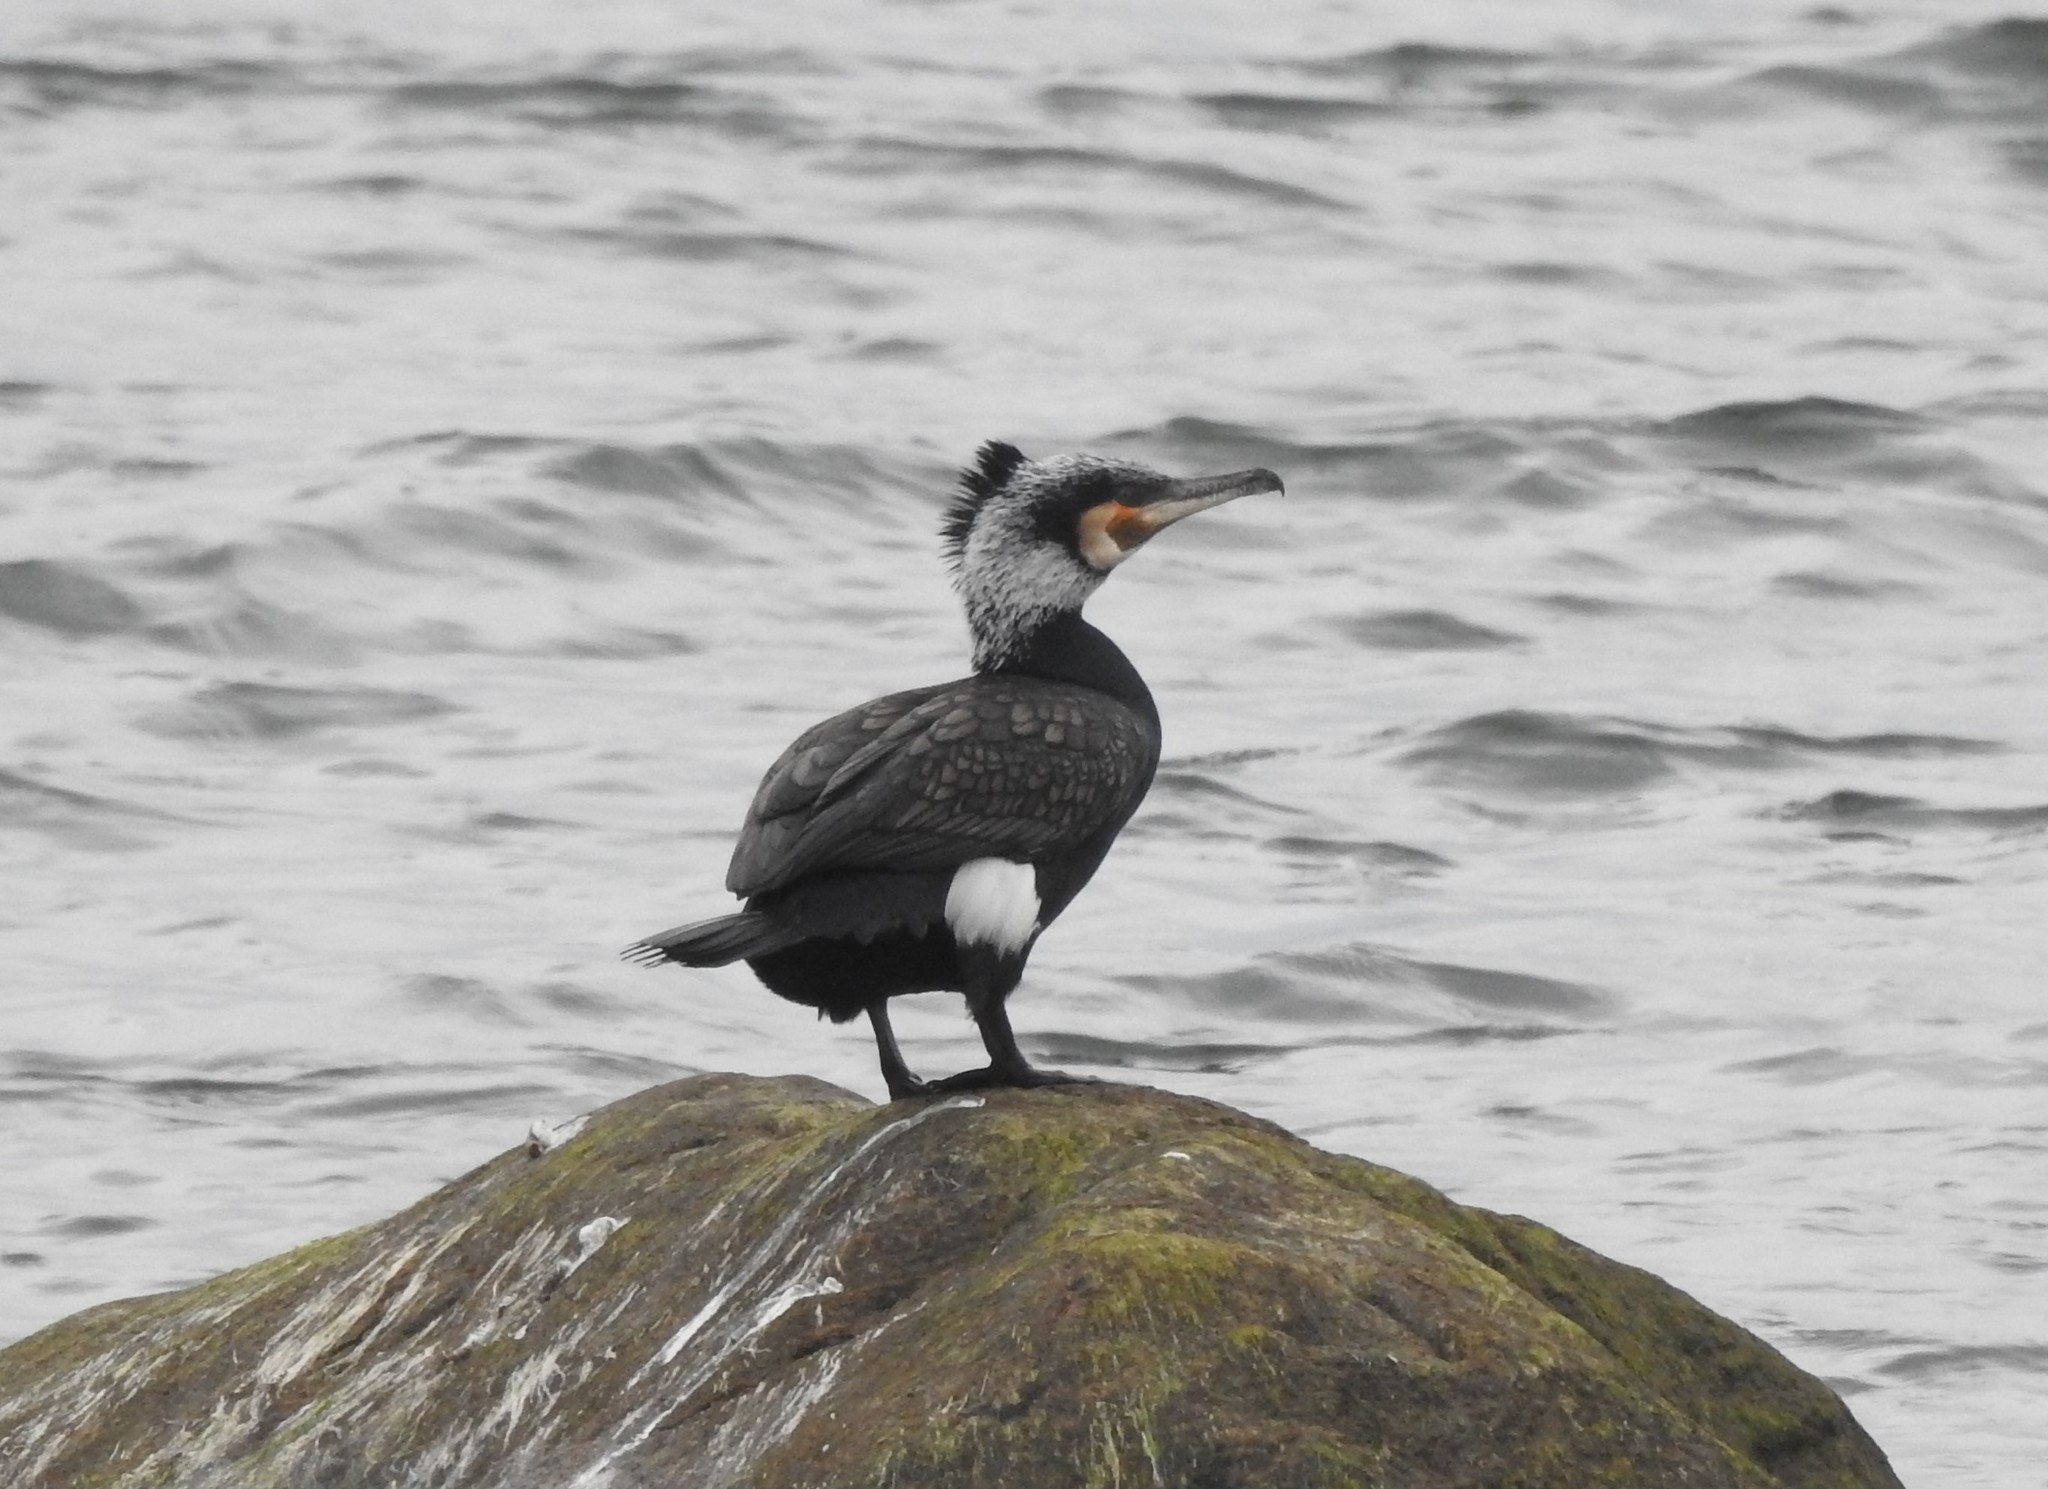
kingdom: Animalia
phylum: Chordata
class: Aves
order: Suliformes
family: Phalacrocoracidae
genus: Phalacrocorax
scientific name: Phalacrocorax carbo
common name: Great cormorant
